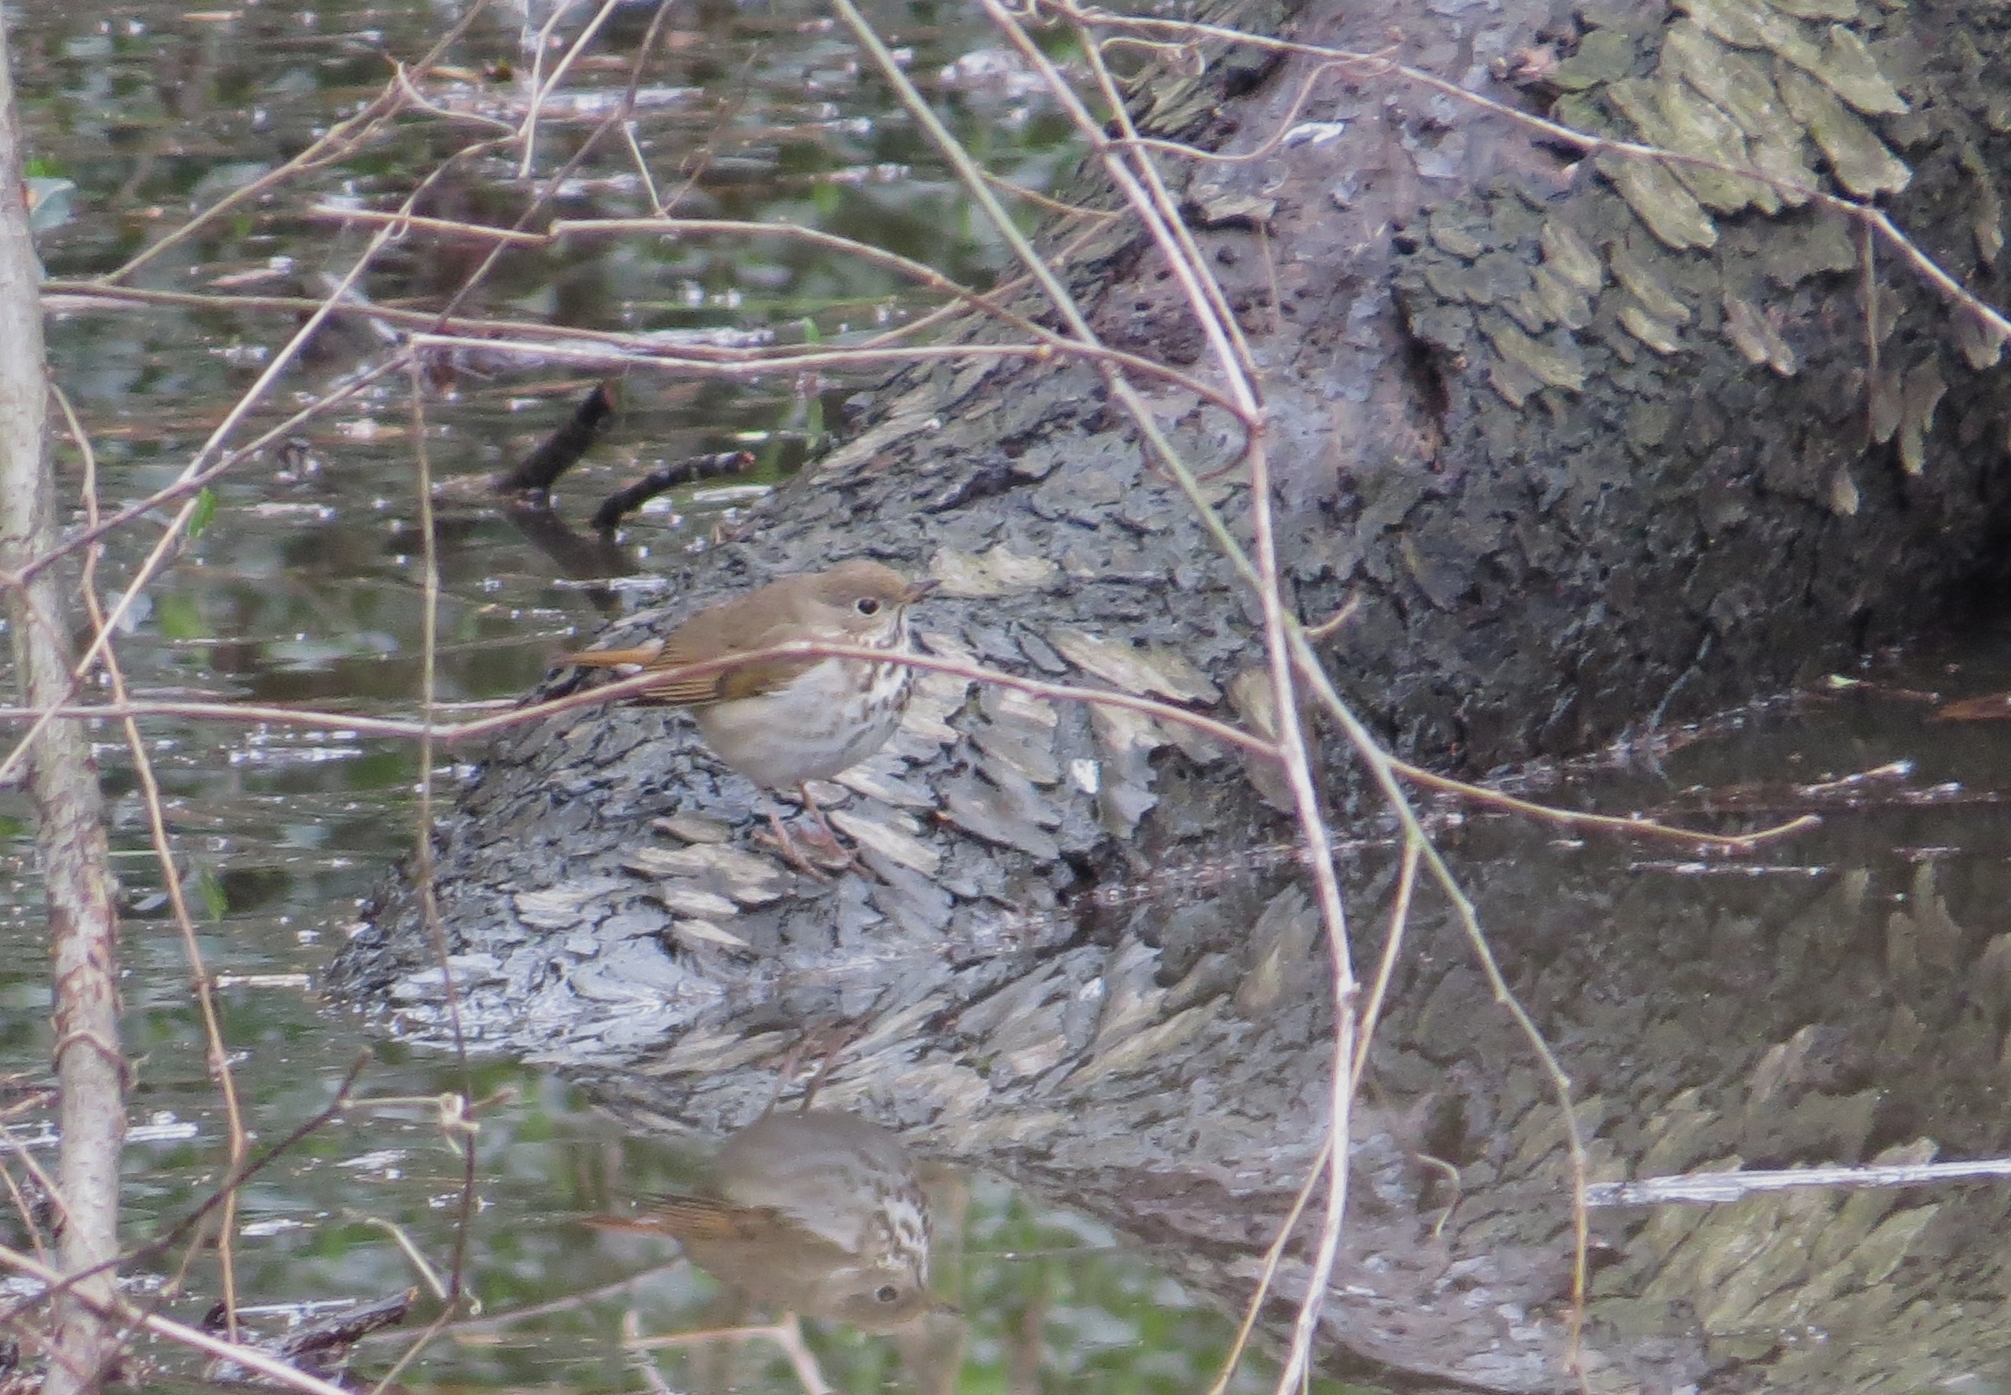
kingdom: Animalia
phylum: Chordata
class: Aves
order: Passeriformes
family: Turdidae
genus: Catharus
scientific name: Catharus guttatus
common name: Hermit thrush
